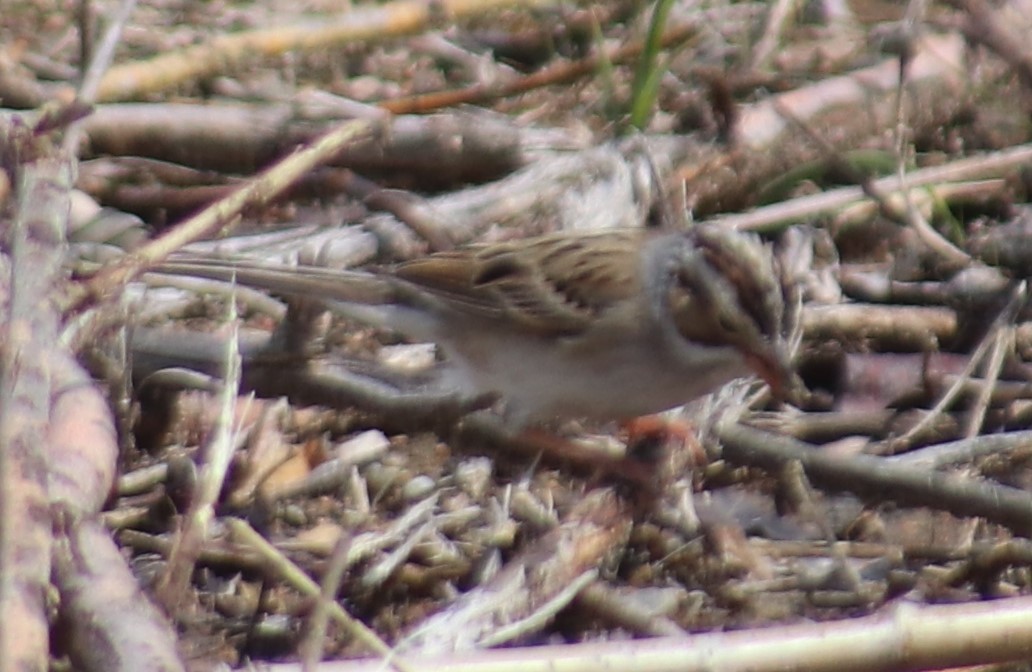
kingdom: Animalia
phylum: Chordata
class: Aves
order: Passeriformes
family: Passerellidae
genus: Spizella
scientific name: Spizella pallida
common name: Clay-colored sparrow
